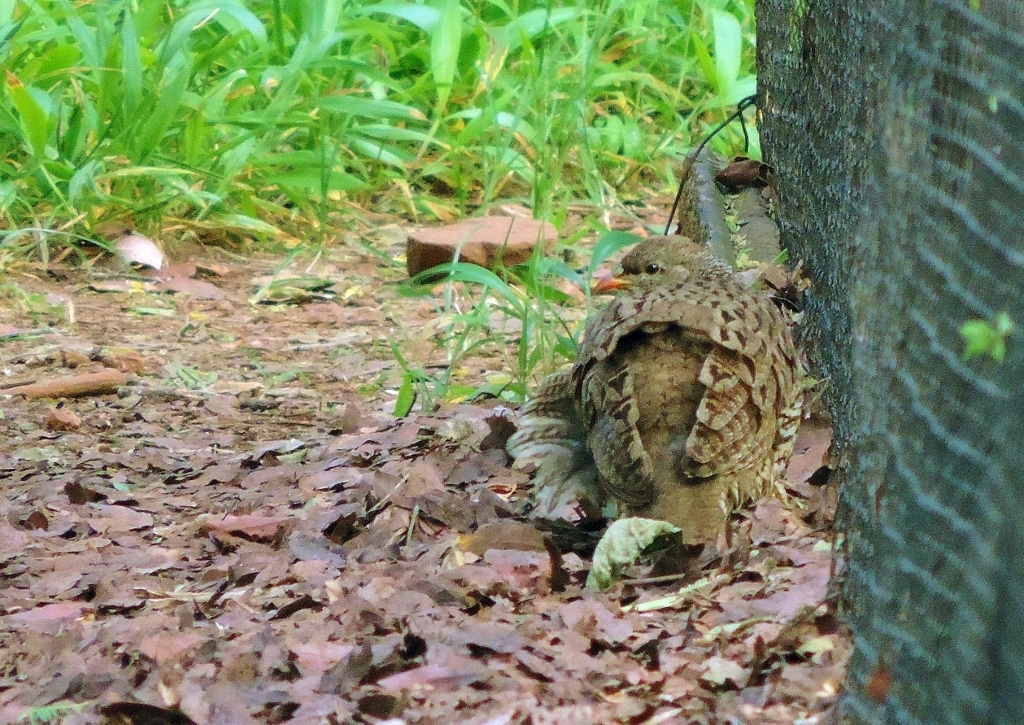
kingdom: Animalia
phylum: Chordata
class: Aves
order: Galliformes
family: Phasianidae
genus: Pternistis
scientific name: Pternistis natalensis
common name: Natal spurfowl
